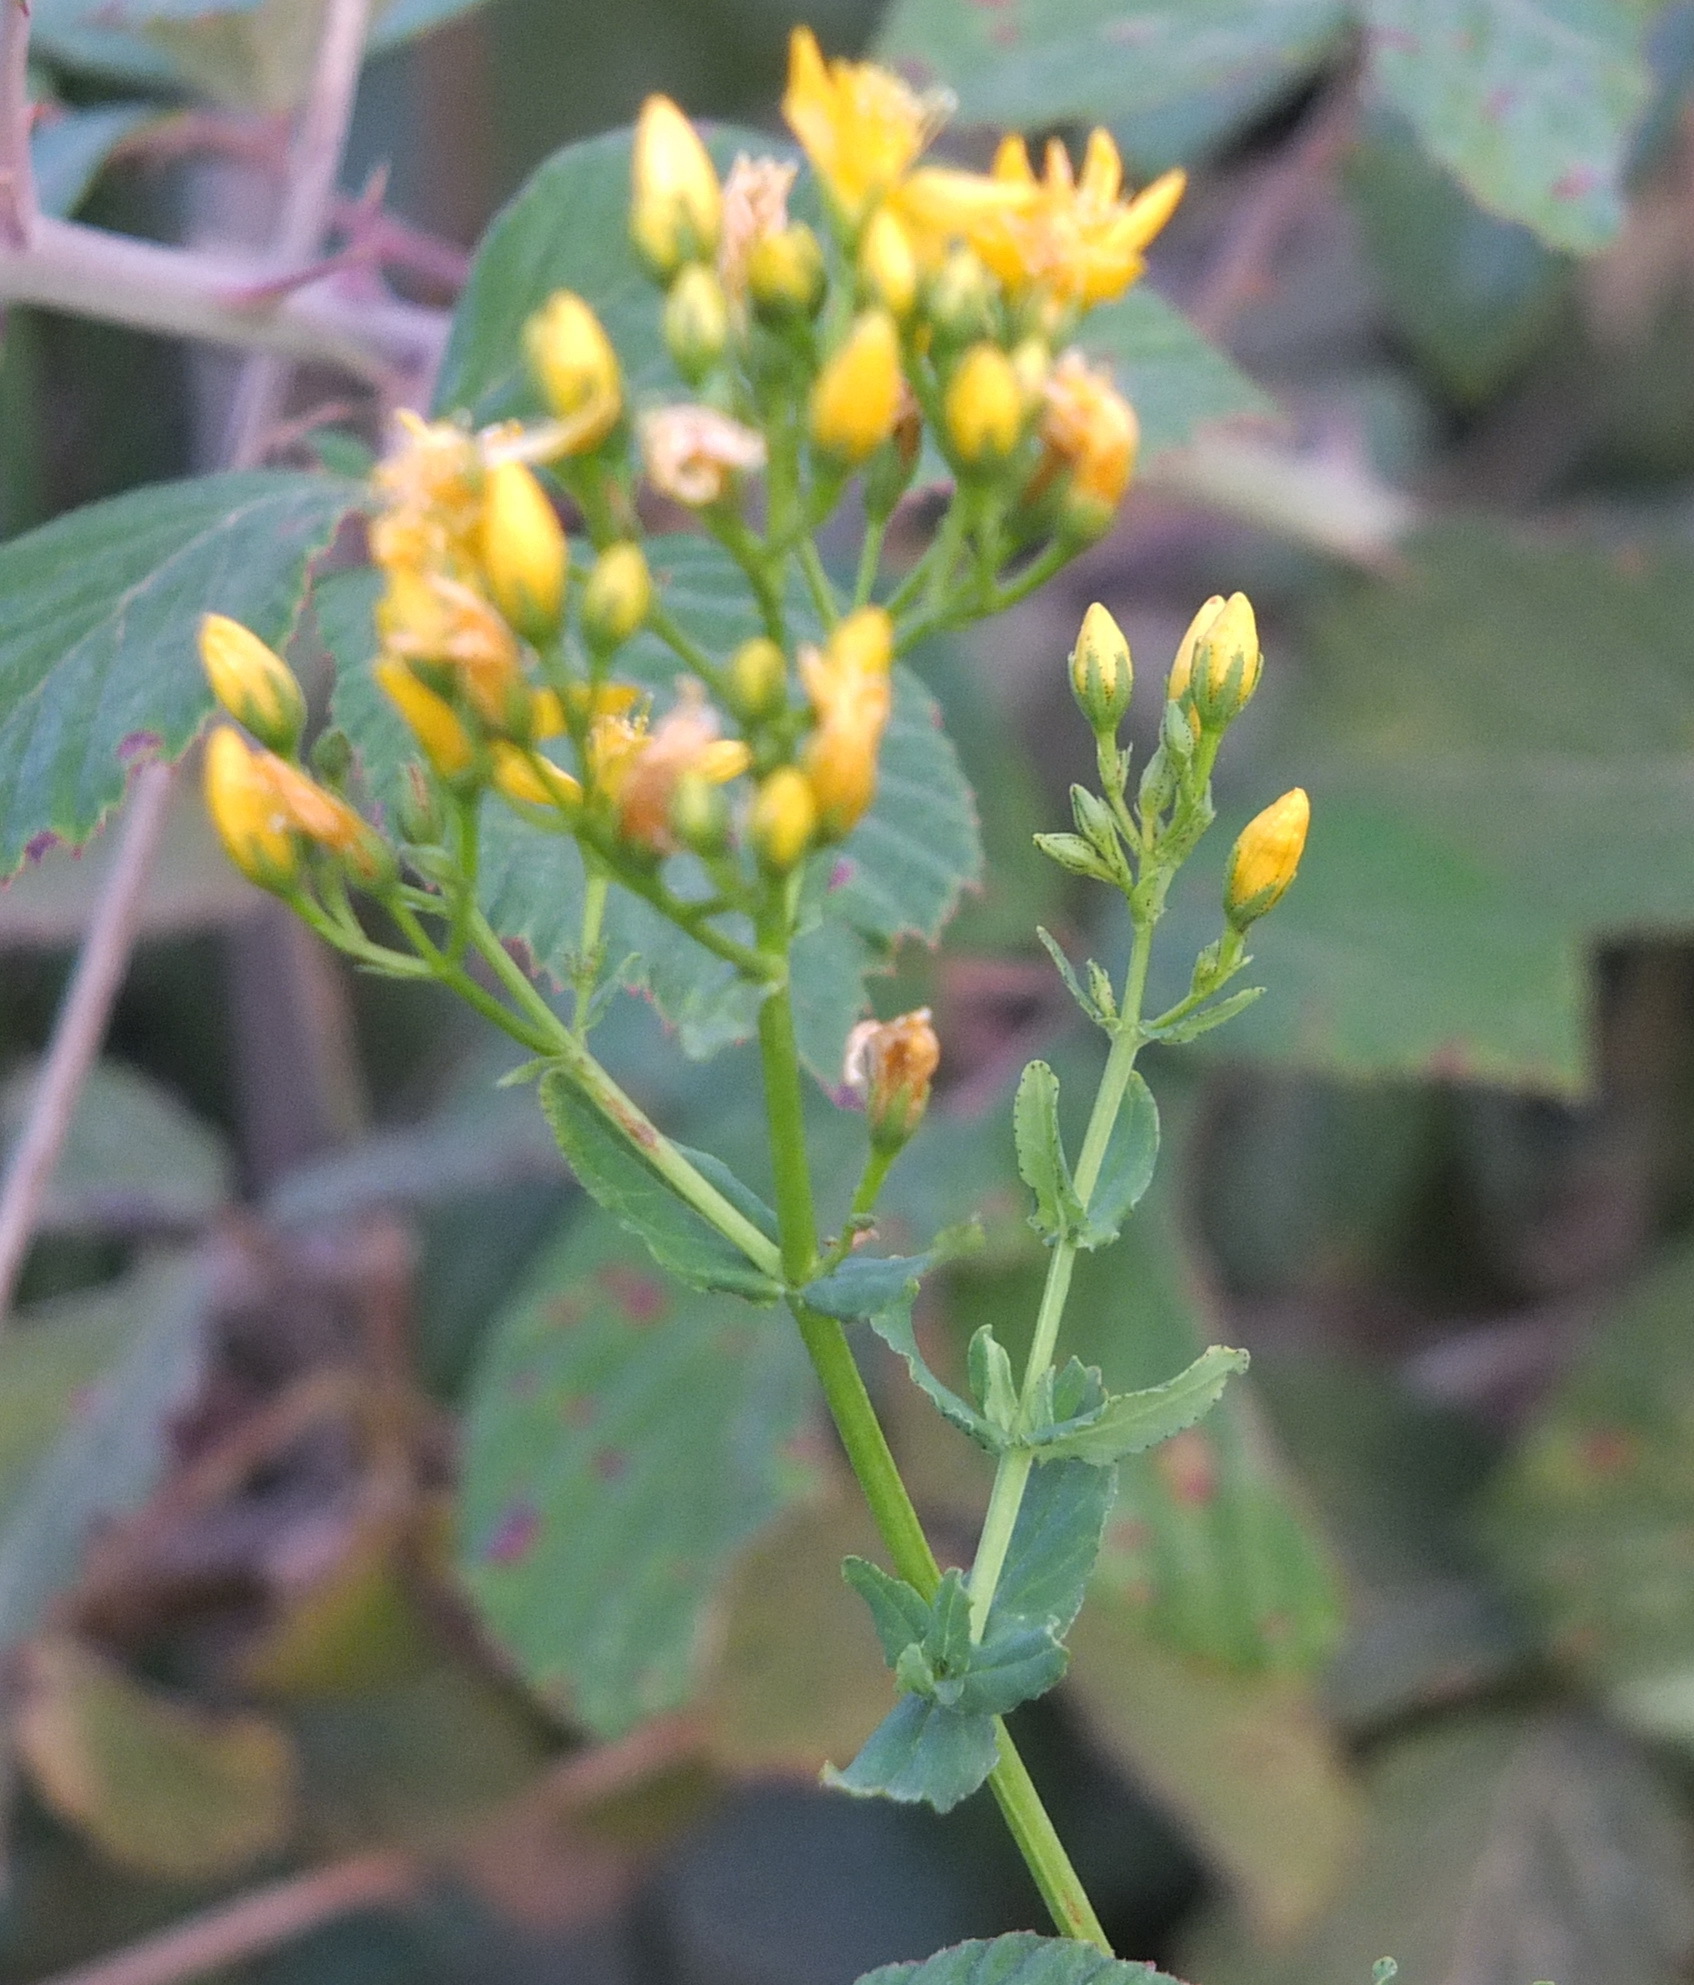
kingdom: Plantae
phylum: Tracheophyta
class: Magnoliopsida
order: Malpighiales
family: Hypericaceae
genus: Hypericum
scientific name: Hypericum afrum
